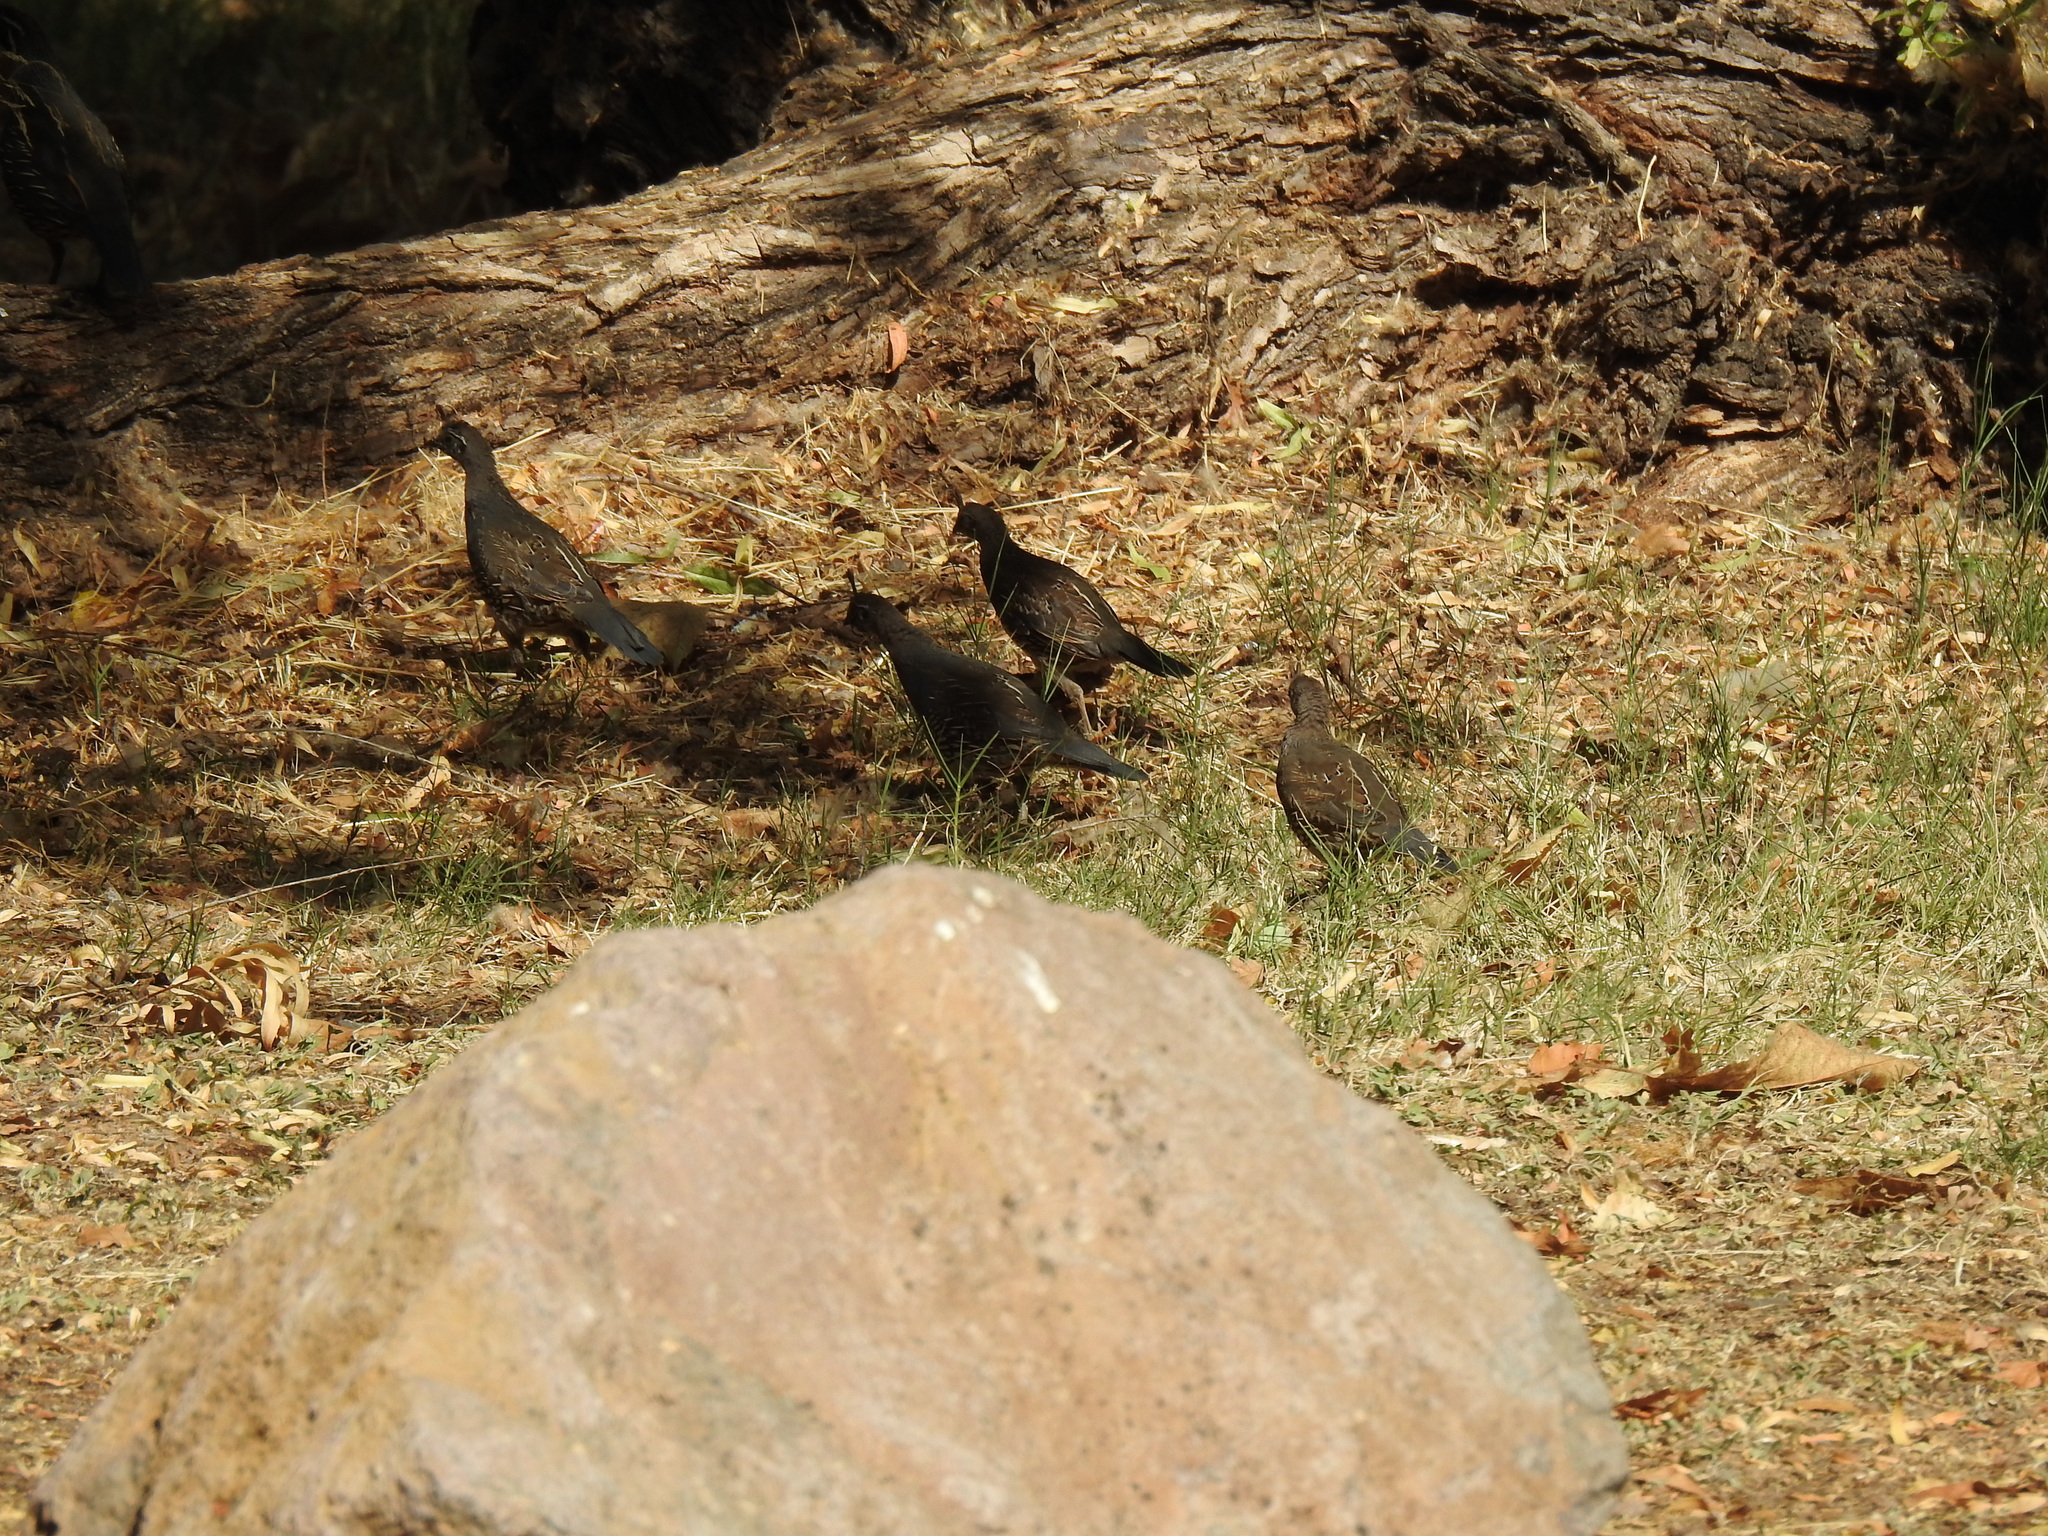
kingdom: Animalia
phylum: Chordata
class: Aves
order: Galliformes
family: Odontophoridae
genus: Callipepla
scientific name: Callipepla californica
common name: California quail
